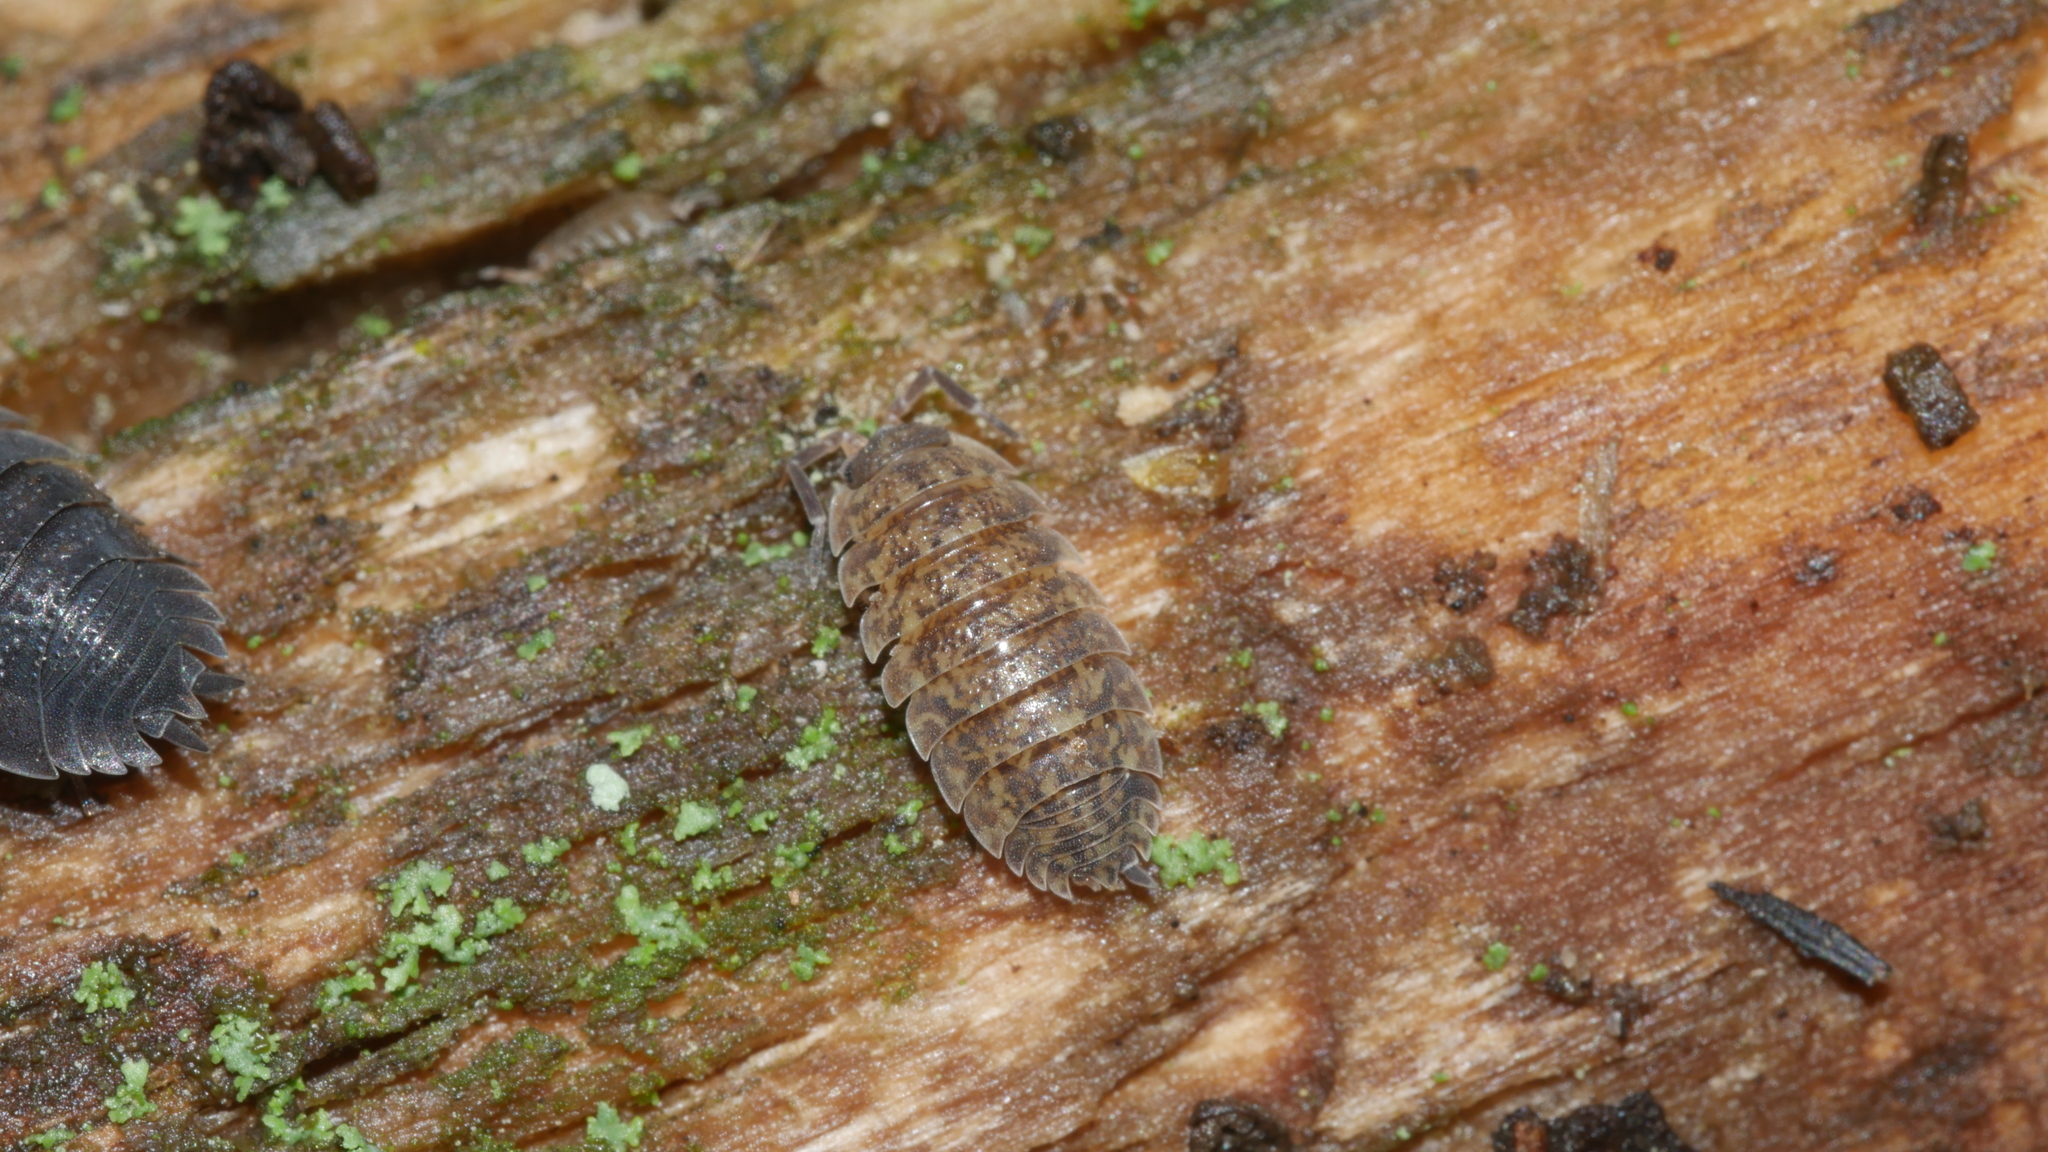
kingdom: Animalia
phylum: Arthropoda
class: Malacostraca
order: Isopoda
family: Porcellionidae
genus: Porcellio
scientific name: Porcellio scaber
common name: Common rough woodlouse
